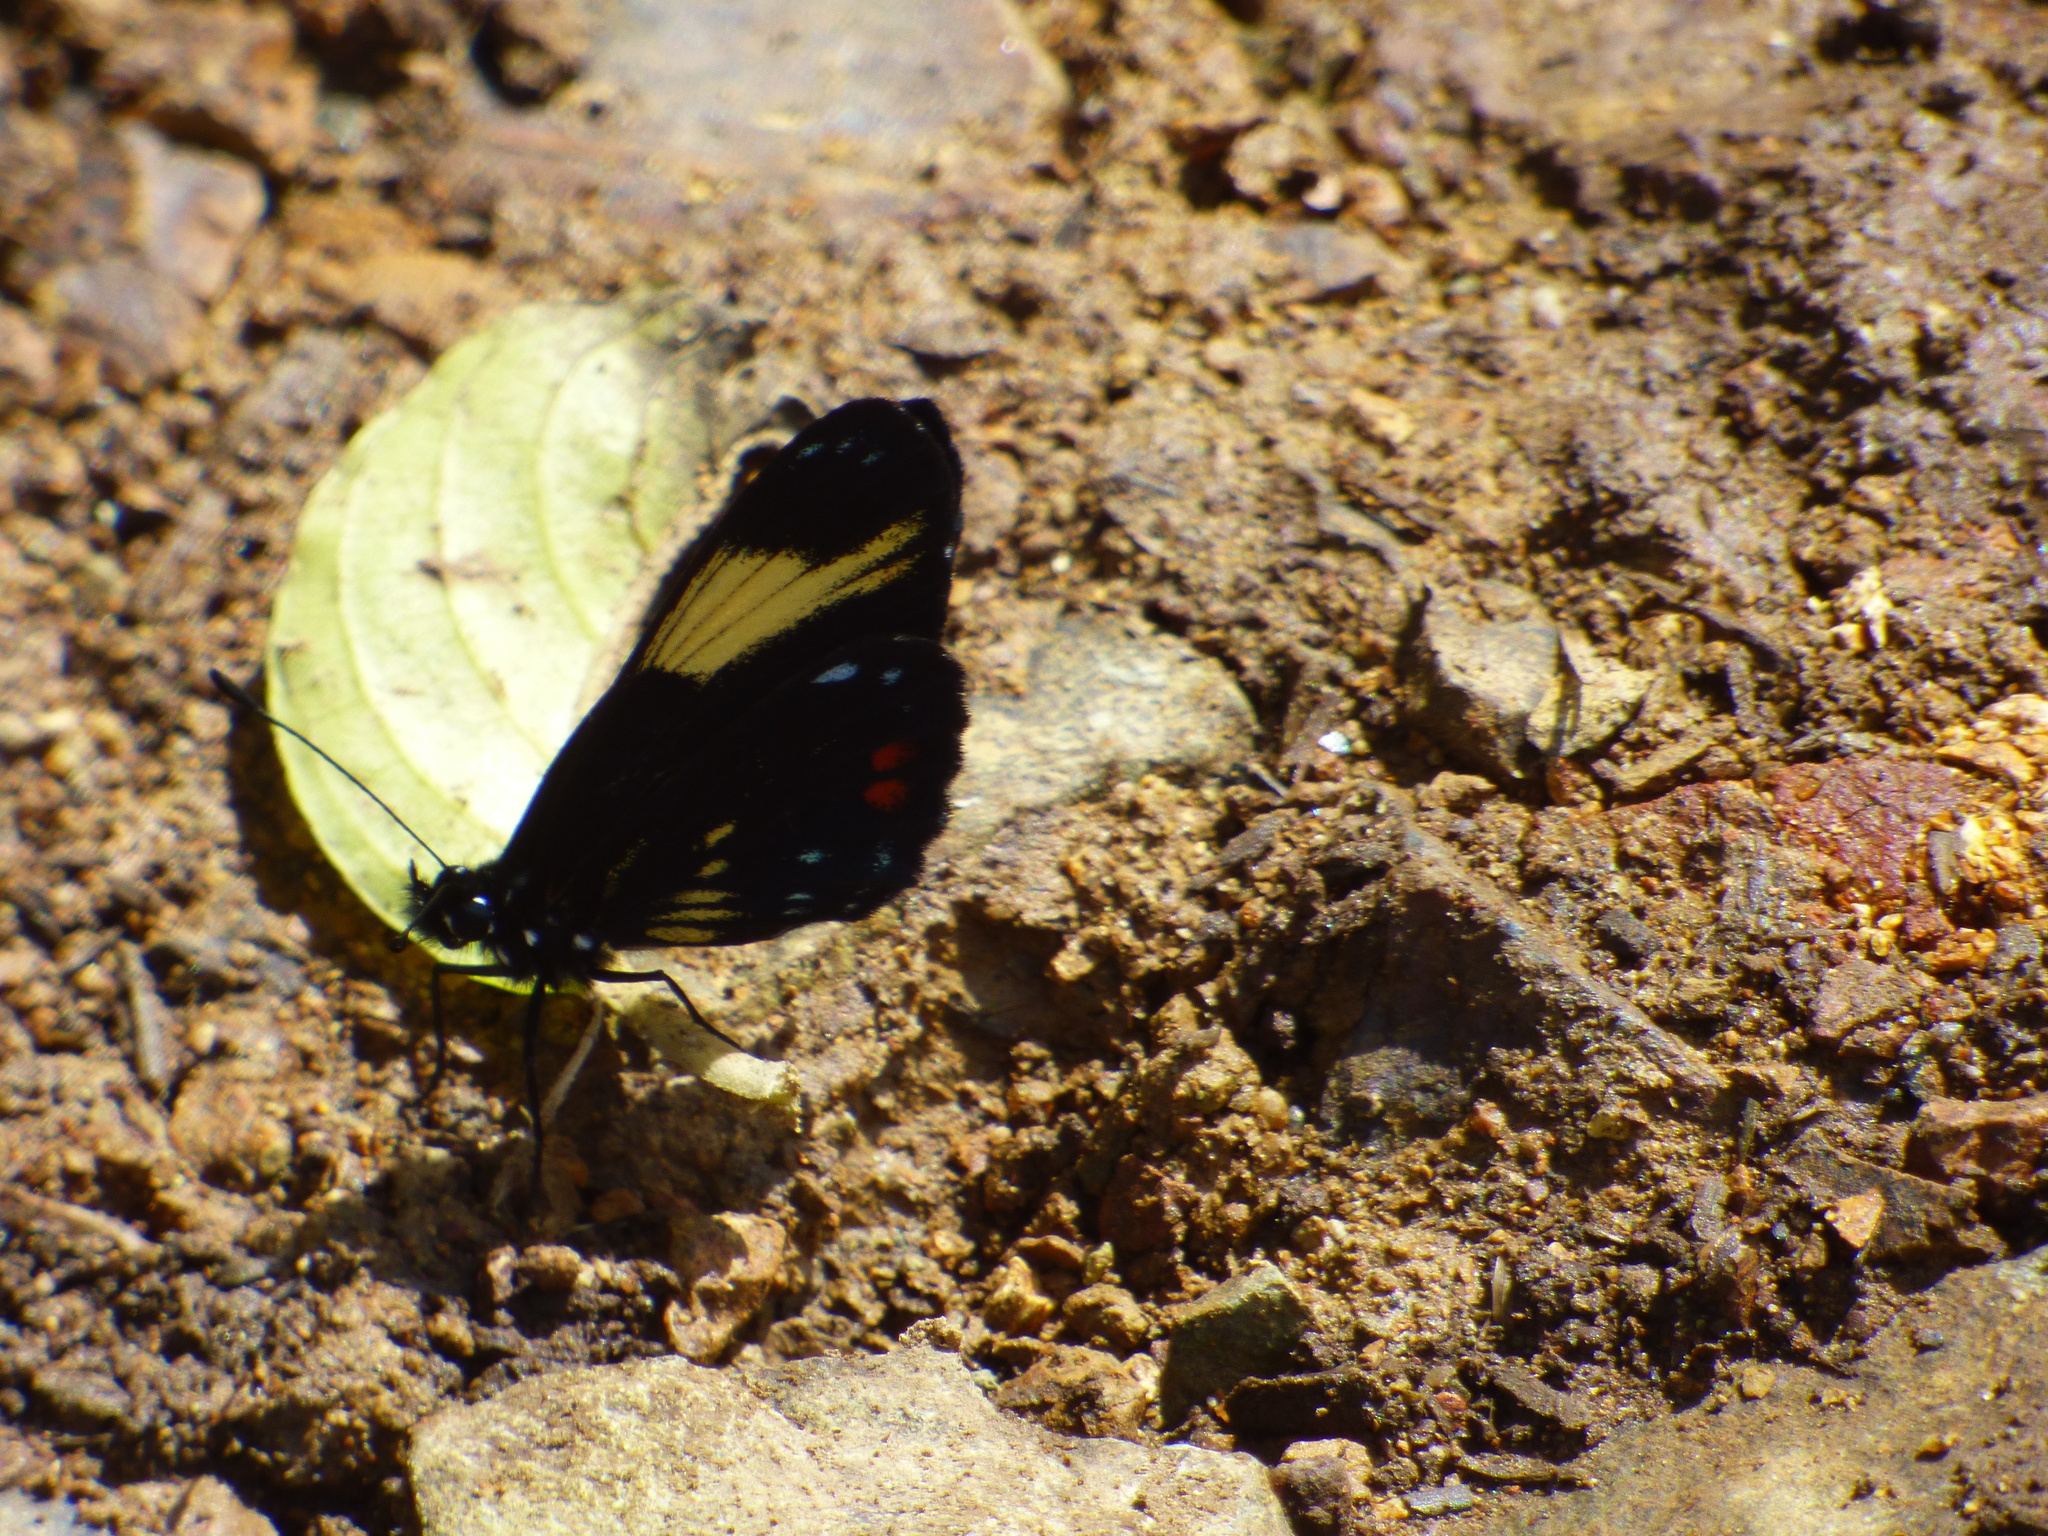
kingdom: Animalia
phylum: Arthropoda
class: Insecta
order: Lepidoptera
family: Nymphalidae
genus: Eresia
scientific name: Eresia levina
